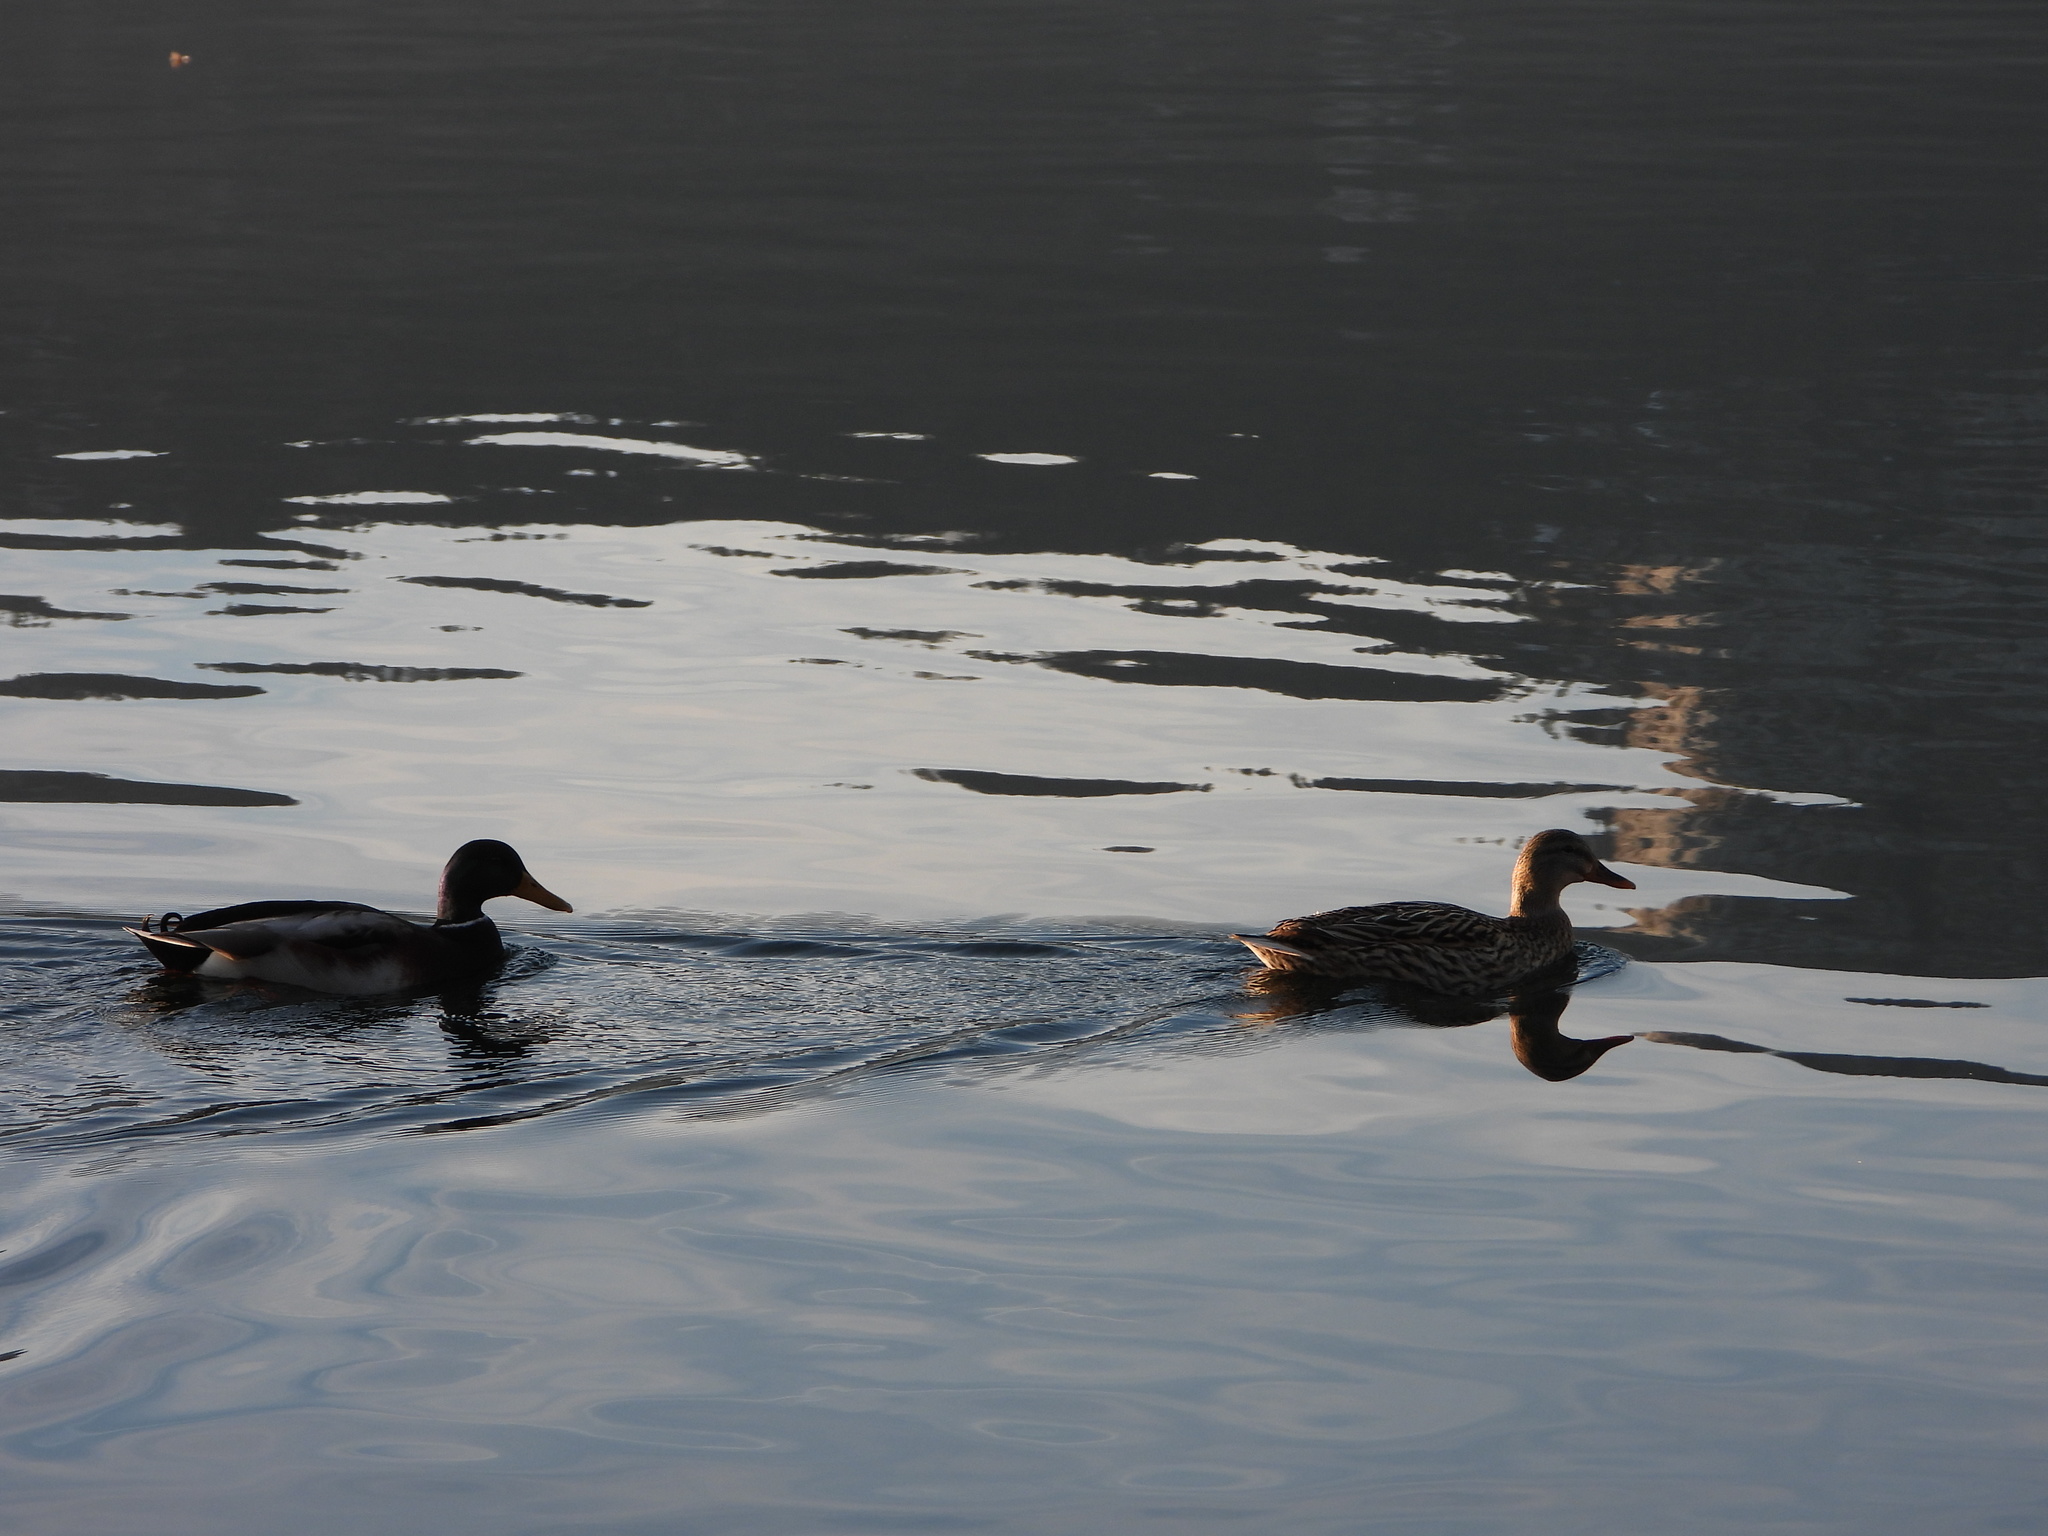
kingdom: Animalia
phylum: Chordata
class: Aves
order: Anseriformes
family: Anatidae
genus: Anas
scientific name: Anas platyrhynchos
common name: Mallard
